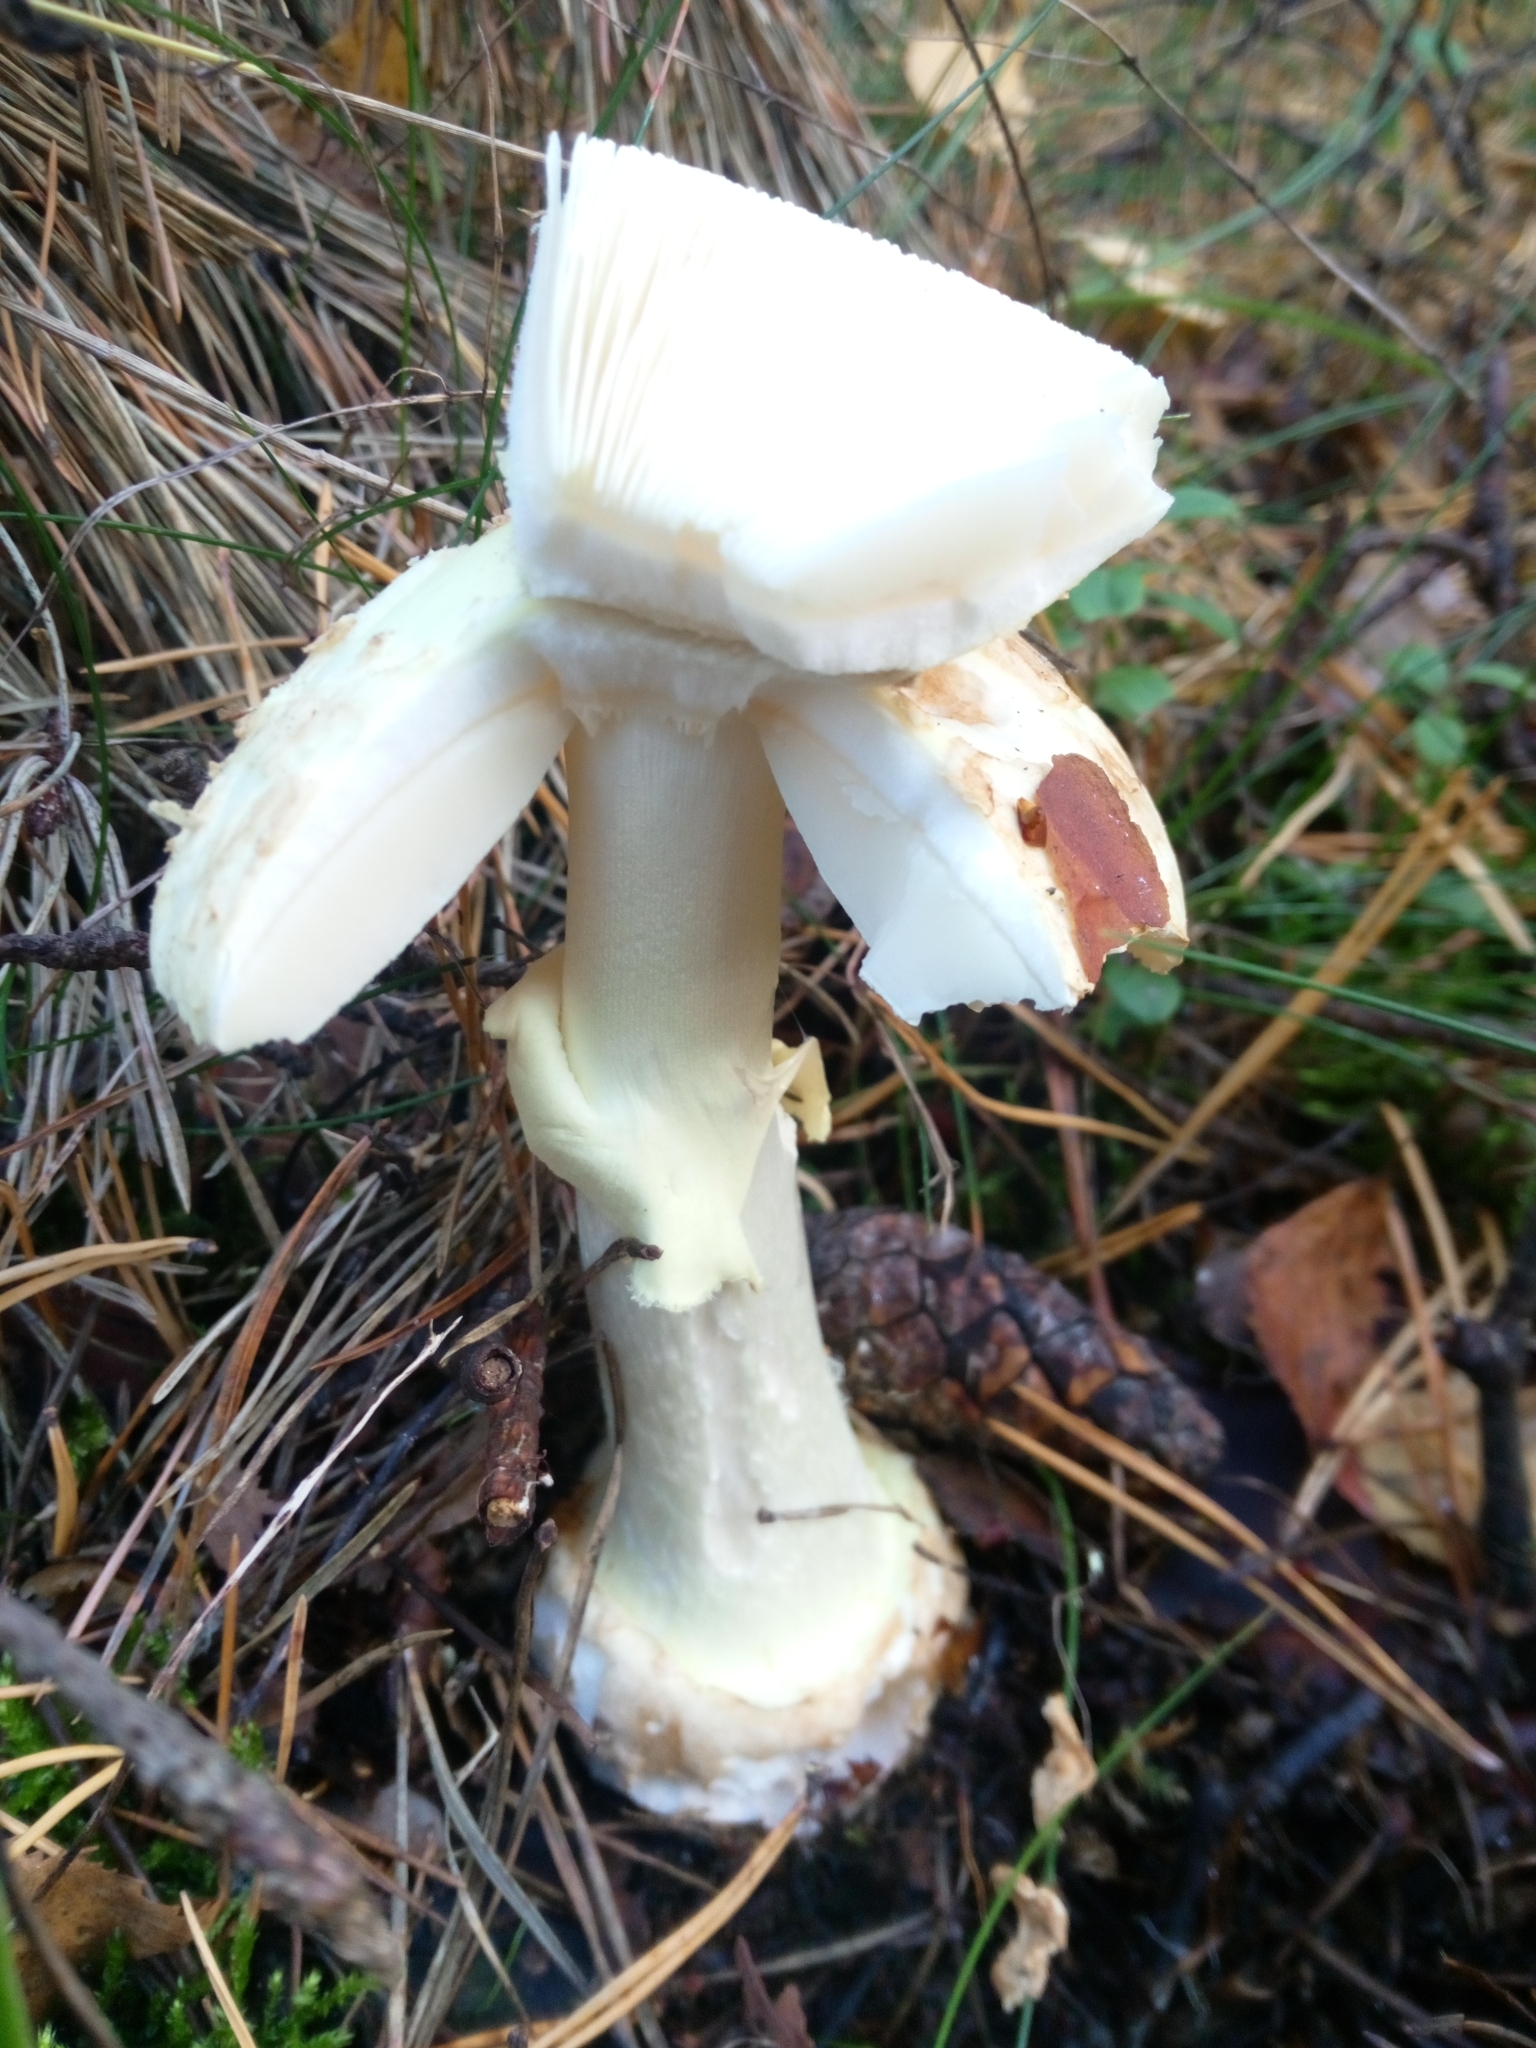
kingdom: Fungi
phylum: Basidiomycota
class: Agaricomycetes
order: Agaricales
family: Amanitaceae
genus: Amanita
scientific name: Amanita citrina
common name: False death-cap
